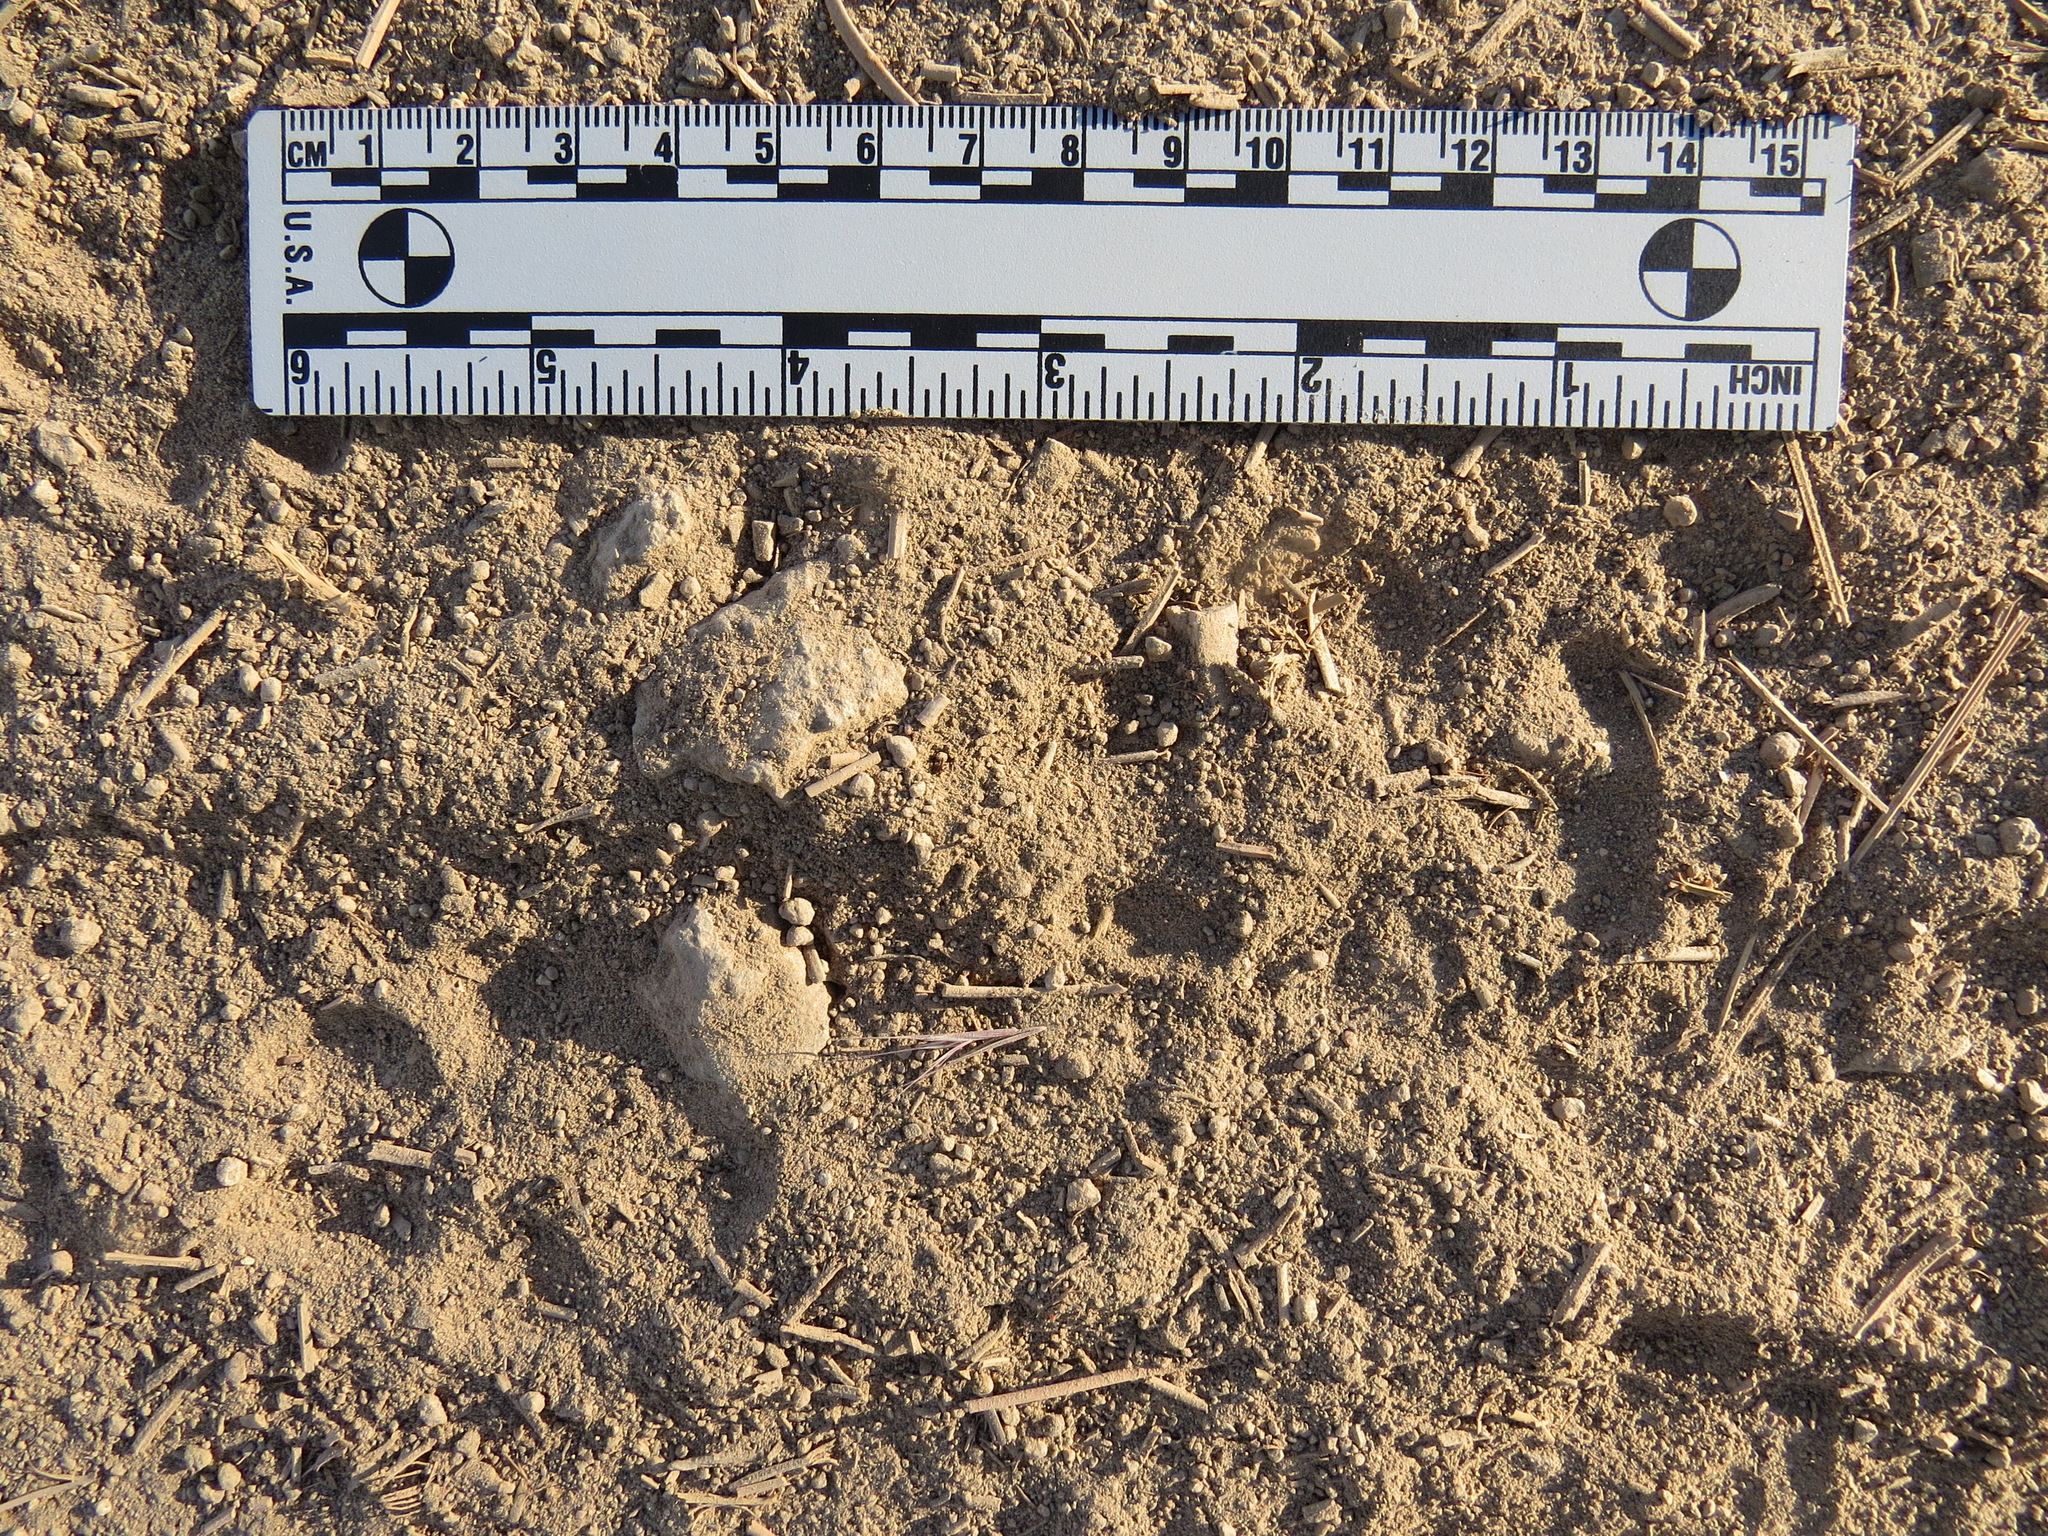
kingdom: Animalia
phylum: Chordata
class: Mammalia
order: Carnivora
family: Canidae
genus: Vulpes
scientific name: Vulpes vulpes
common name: Red fox
